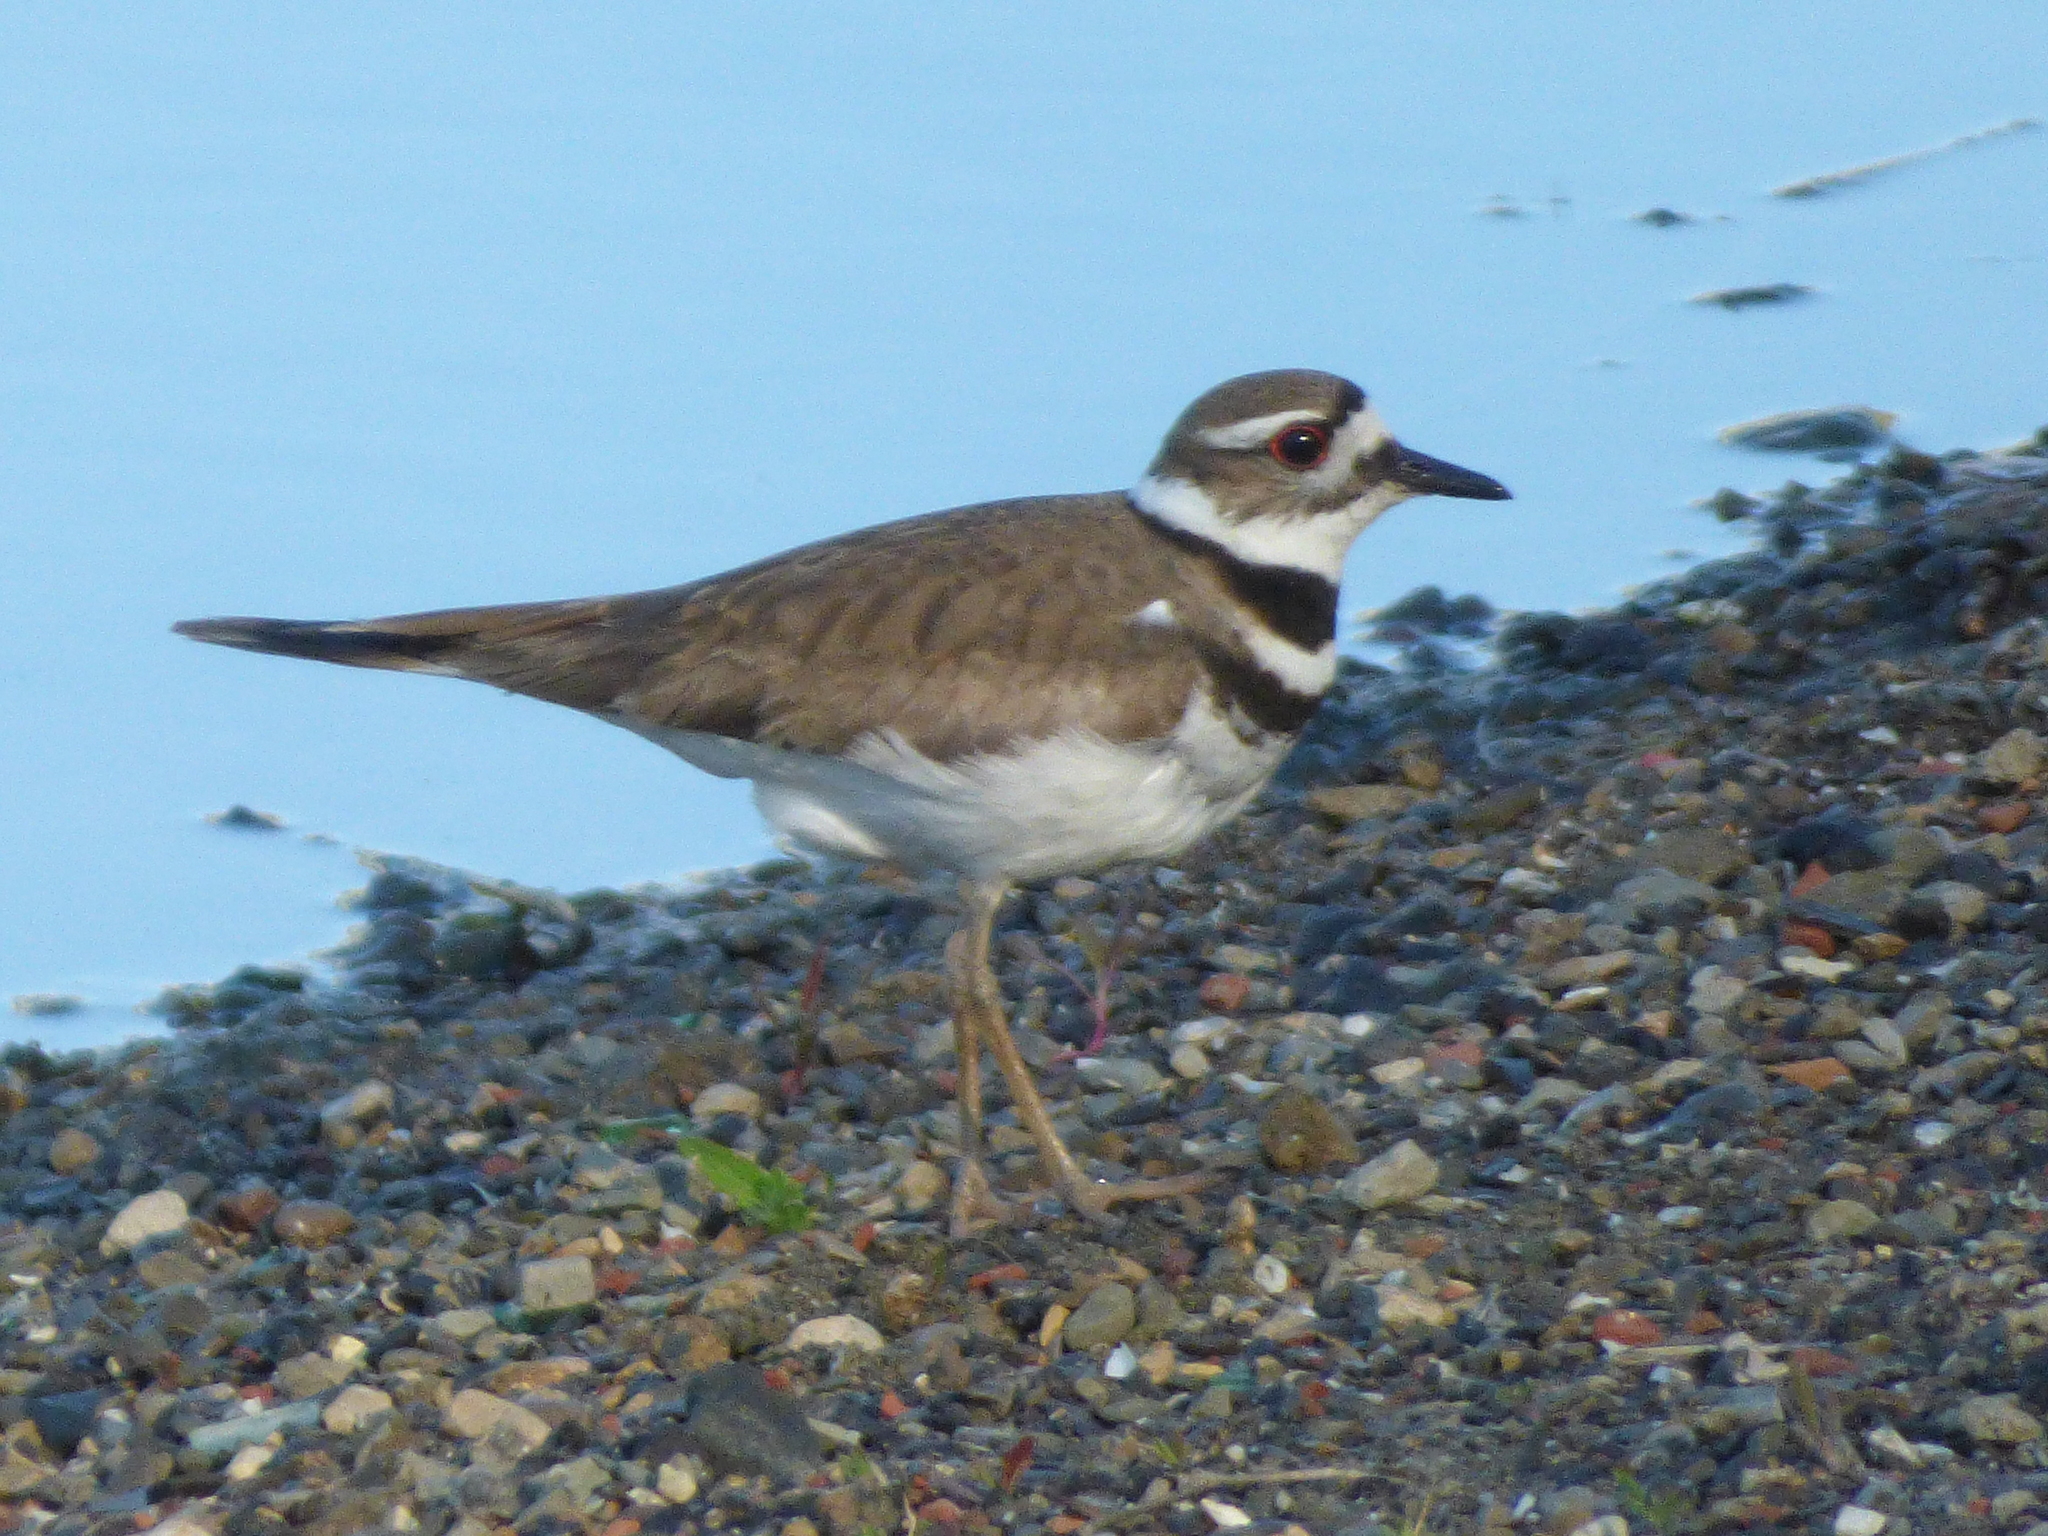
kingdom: Animalia
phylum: Chordata
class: Aves
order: Charadriiformes
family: Charadriidae
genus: Charadrius
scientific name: Charadrius vociferus
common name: Killdeer
